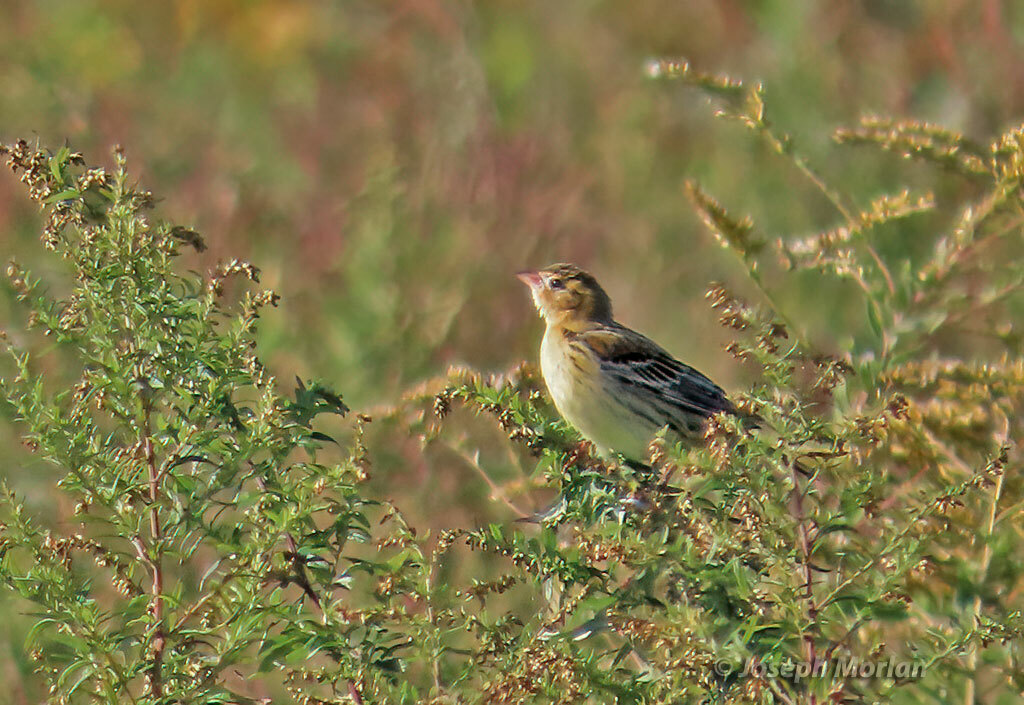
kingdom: Animalia
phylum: Chordata
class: Aves
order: Passeriformes
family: Icteridae
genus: Dolichonyx
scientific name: Dolichonyx oryzivorus
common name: Bobolink
